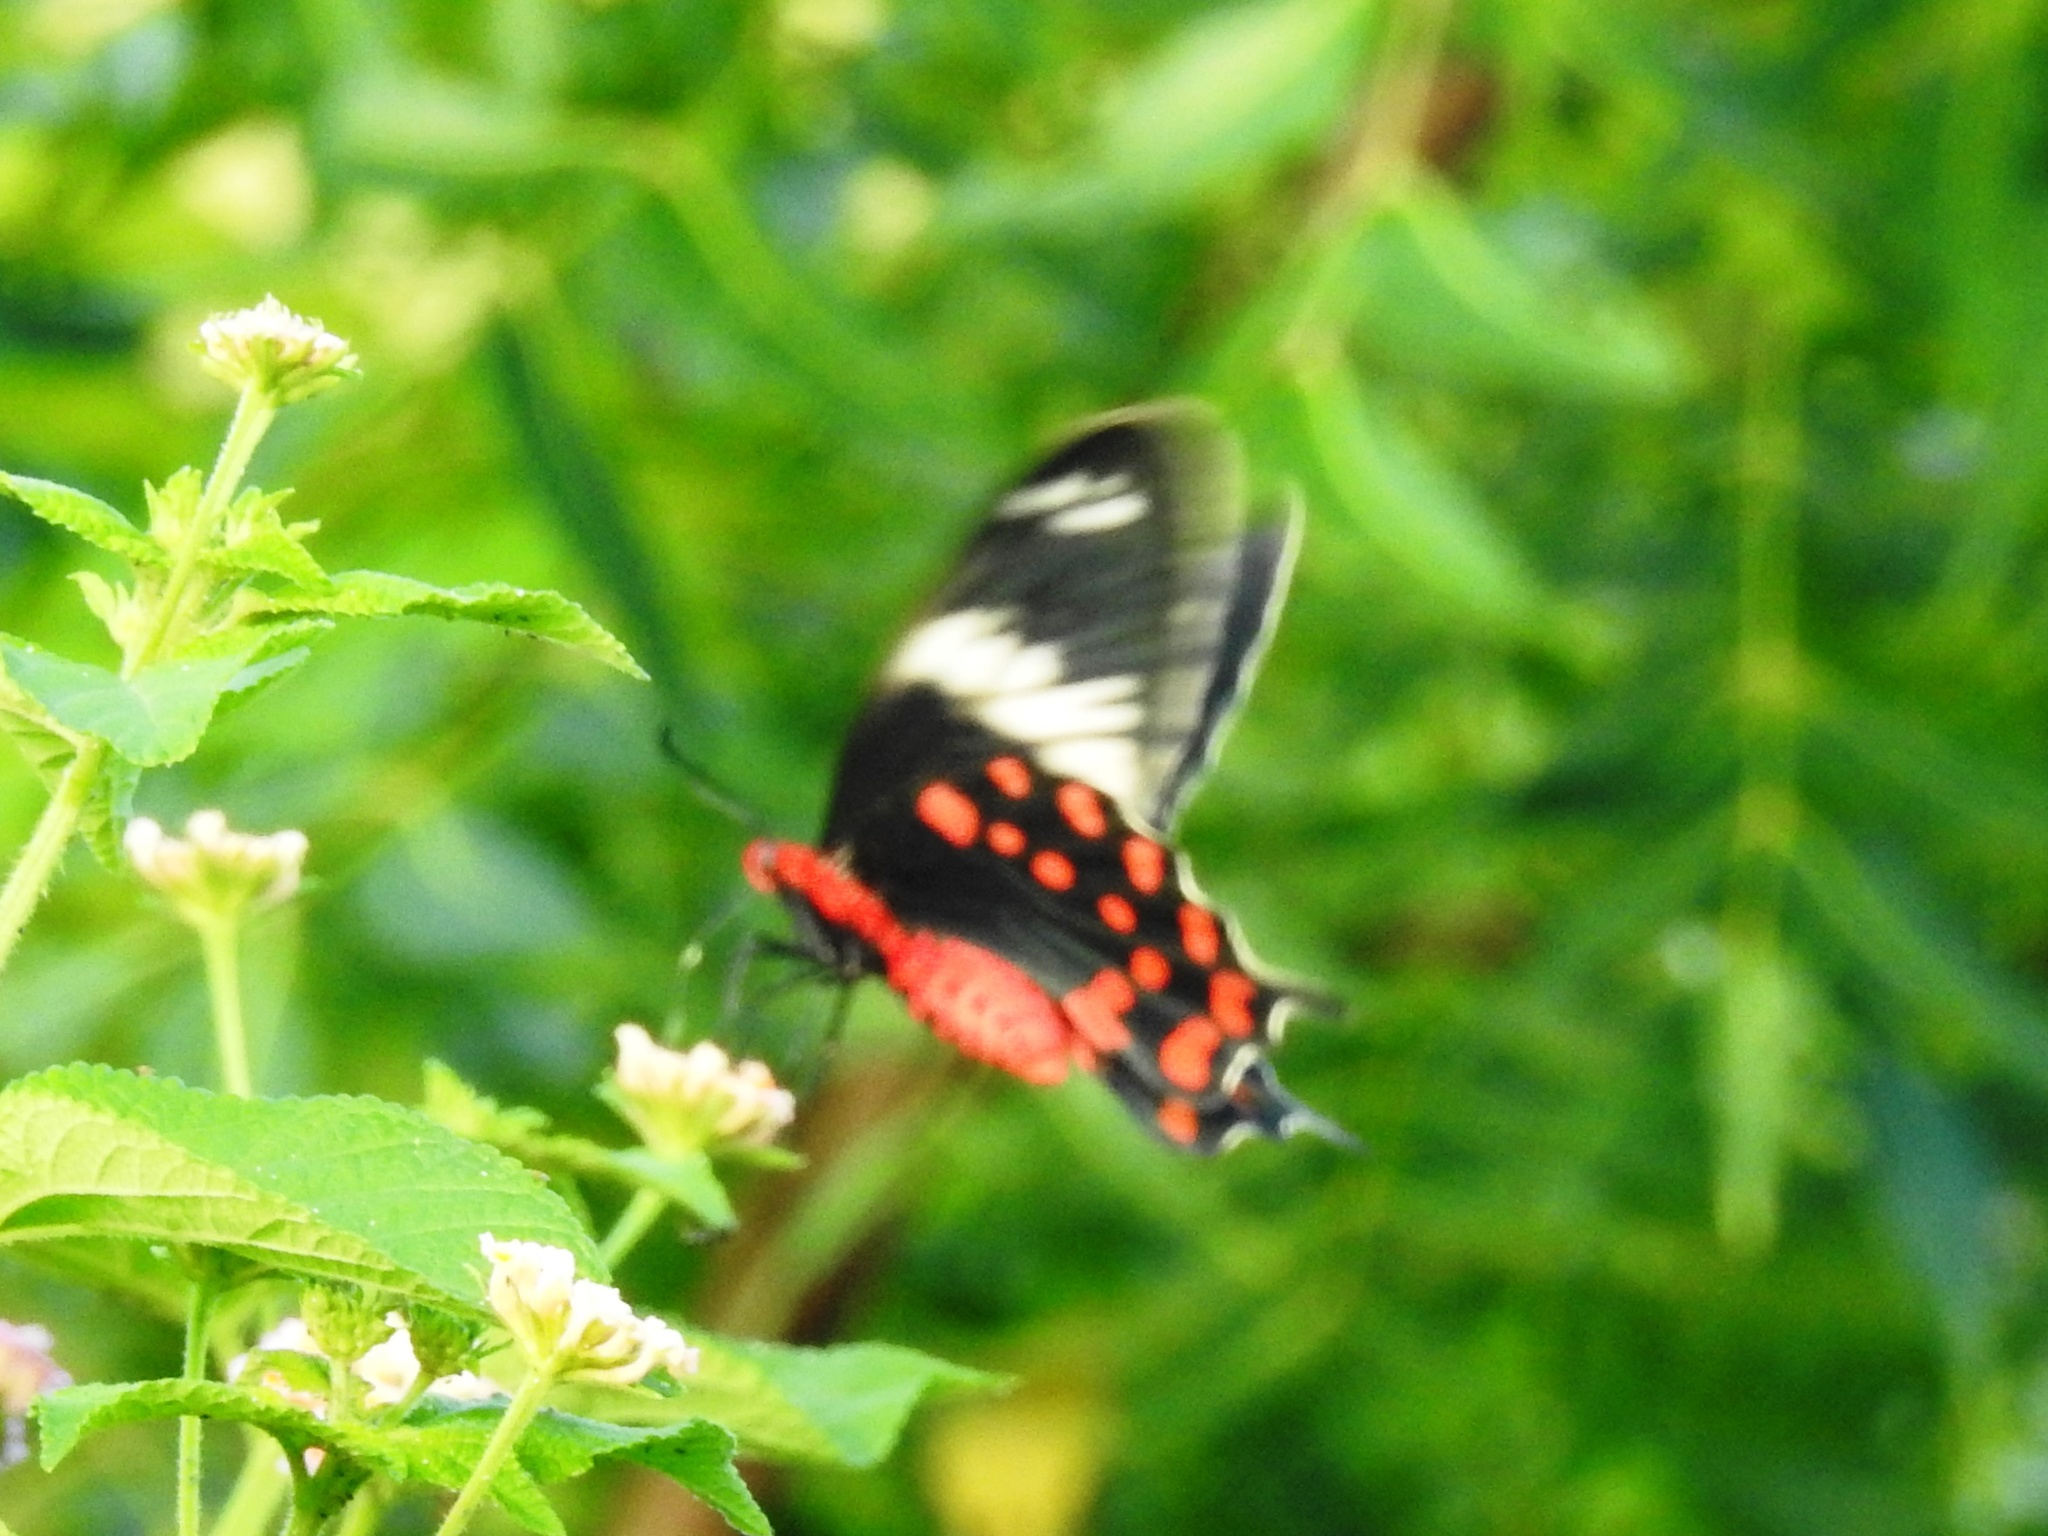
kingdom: Animalia
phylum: Arthropoda
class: Insecta
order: Lepidoptera
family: Papilionidae
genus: Pachliopta
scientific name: Pachliopta hector
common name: Crimson rose
